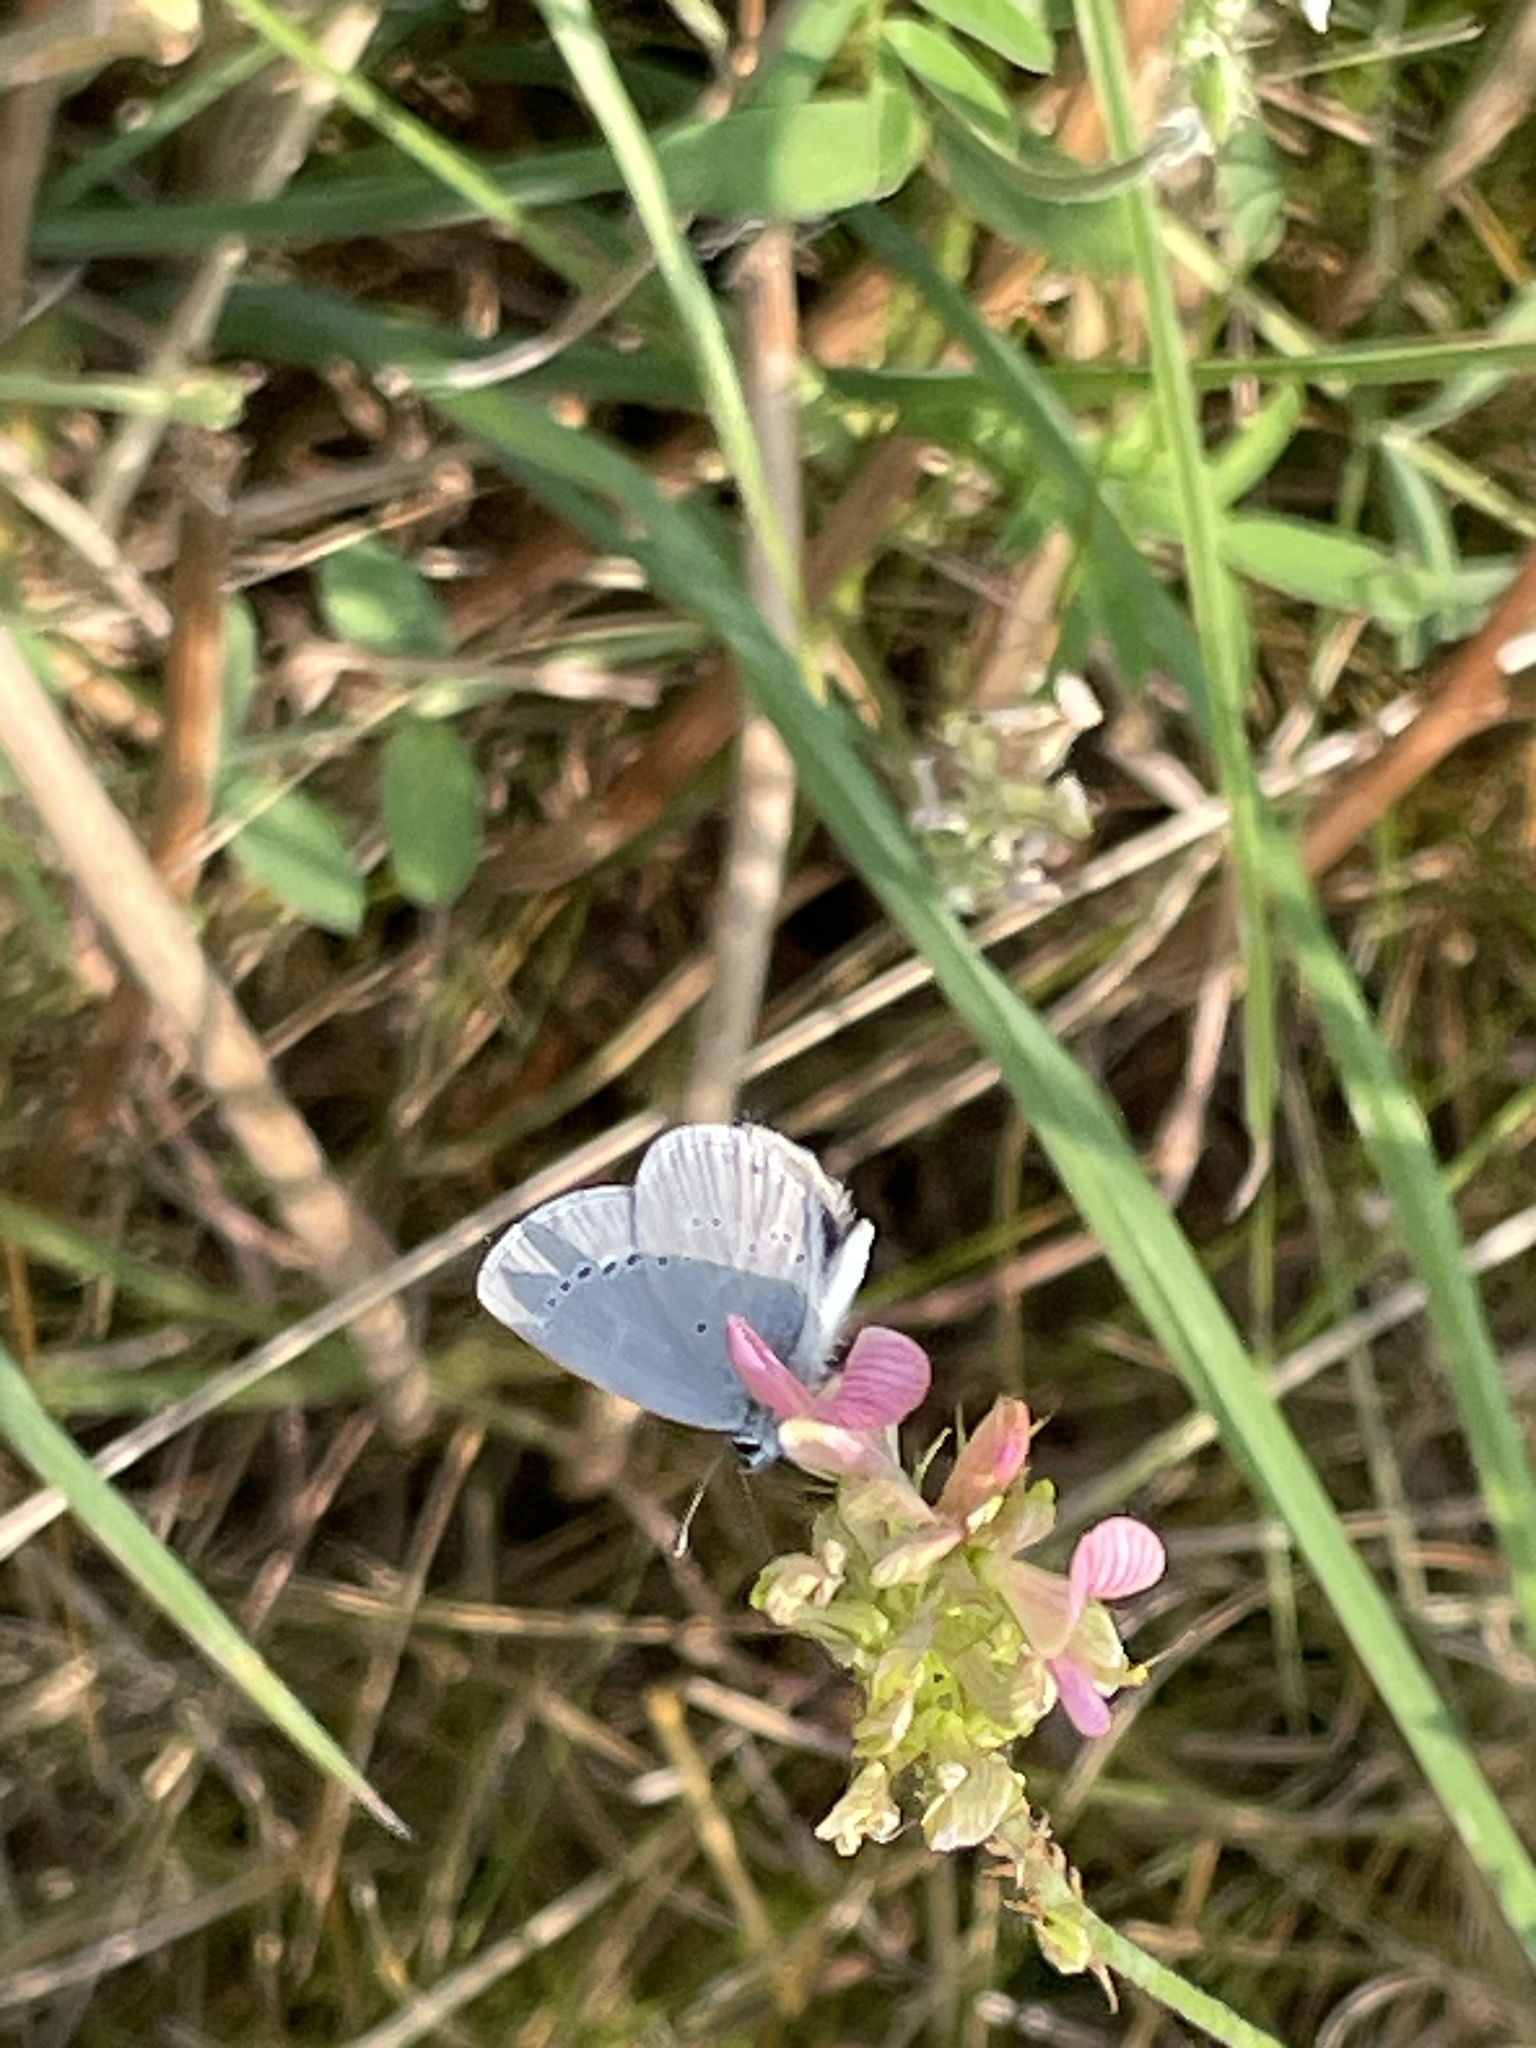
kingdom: Animalia
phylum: Arthropoda
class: Insecta
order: Lepidoptera
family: Lycaenidae
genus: Cupido
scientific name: Cupido minimus
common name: Small blue
